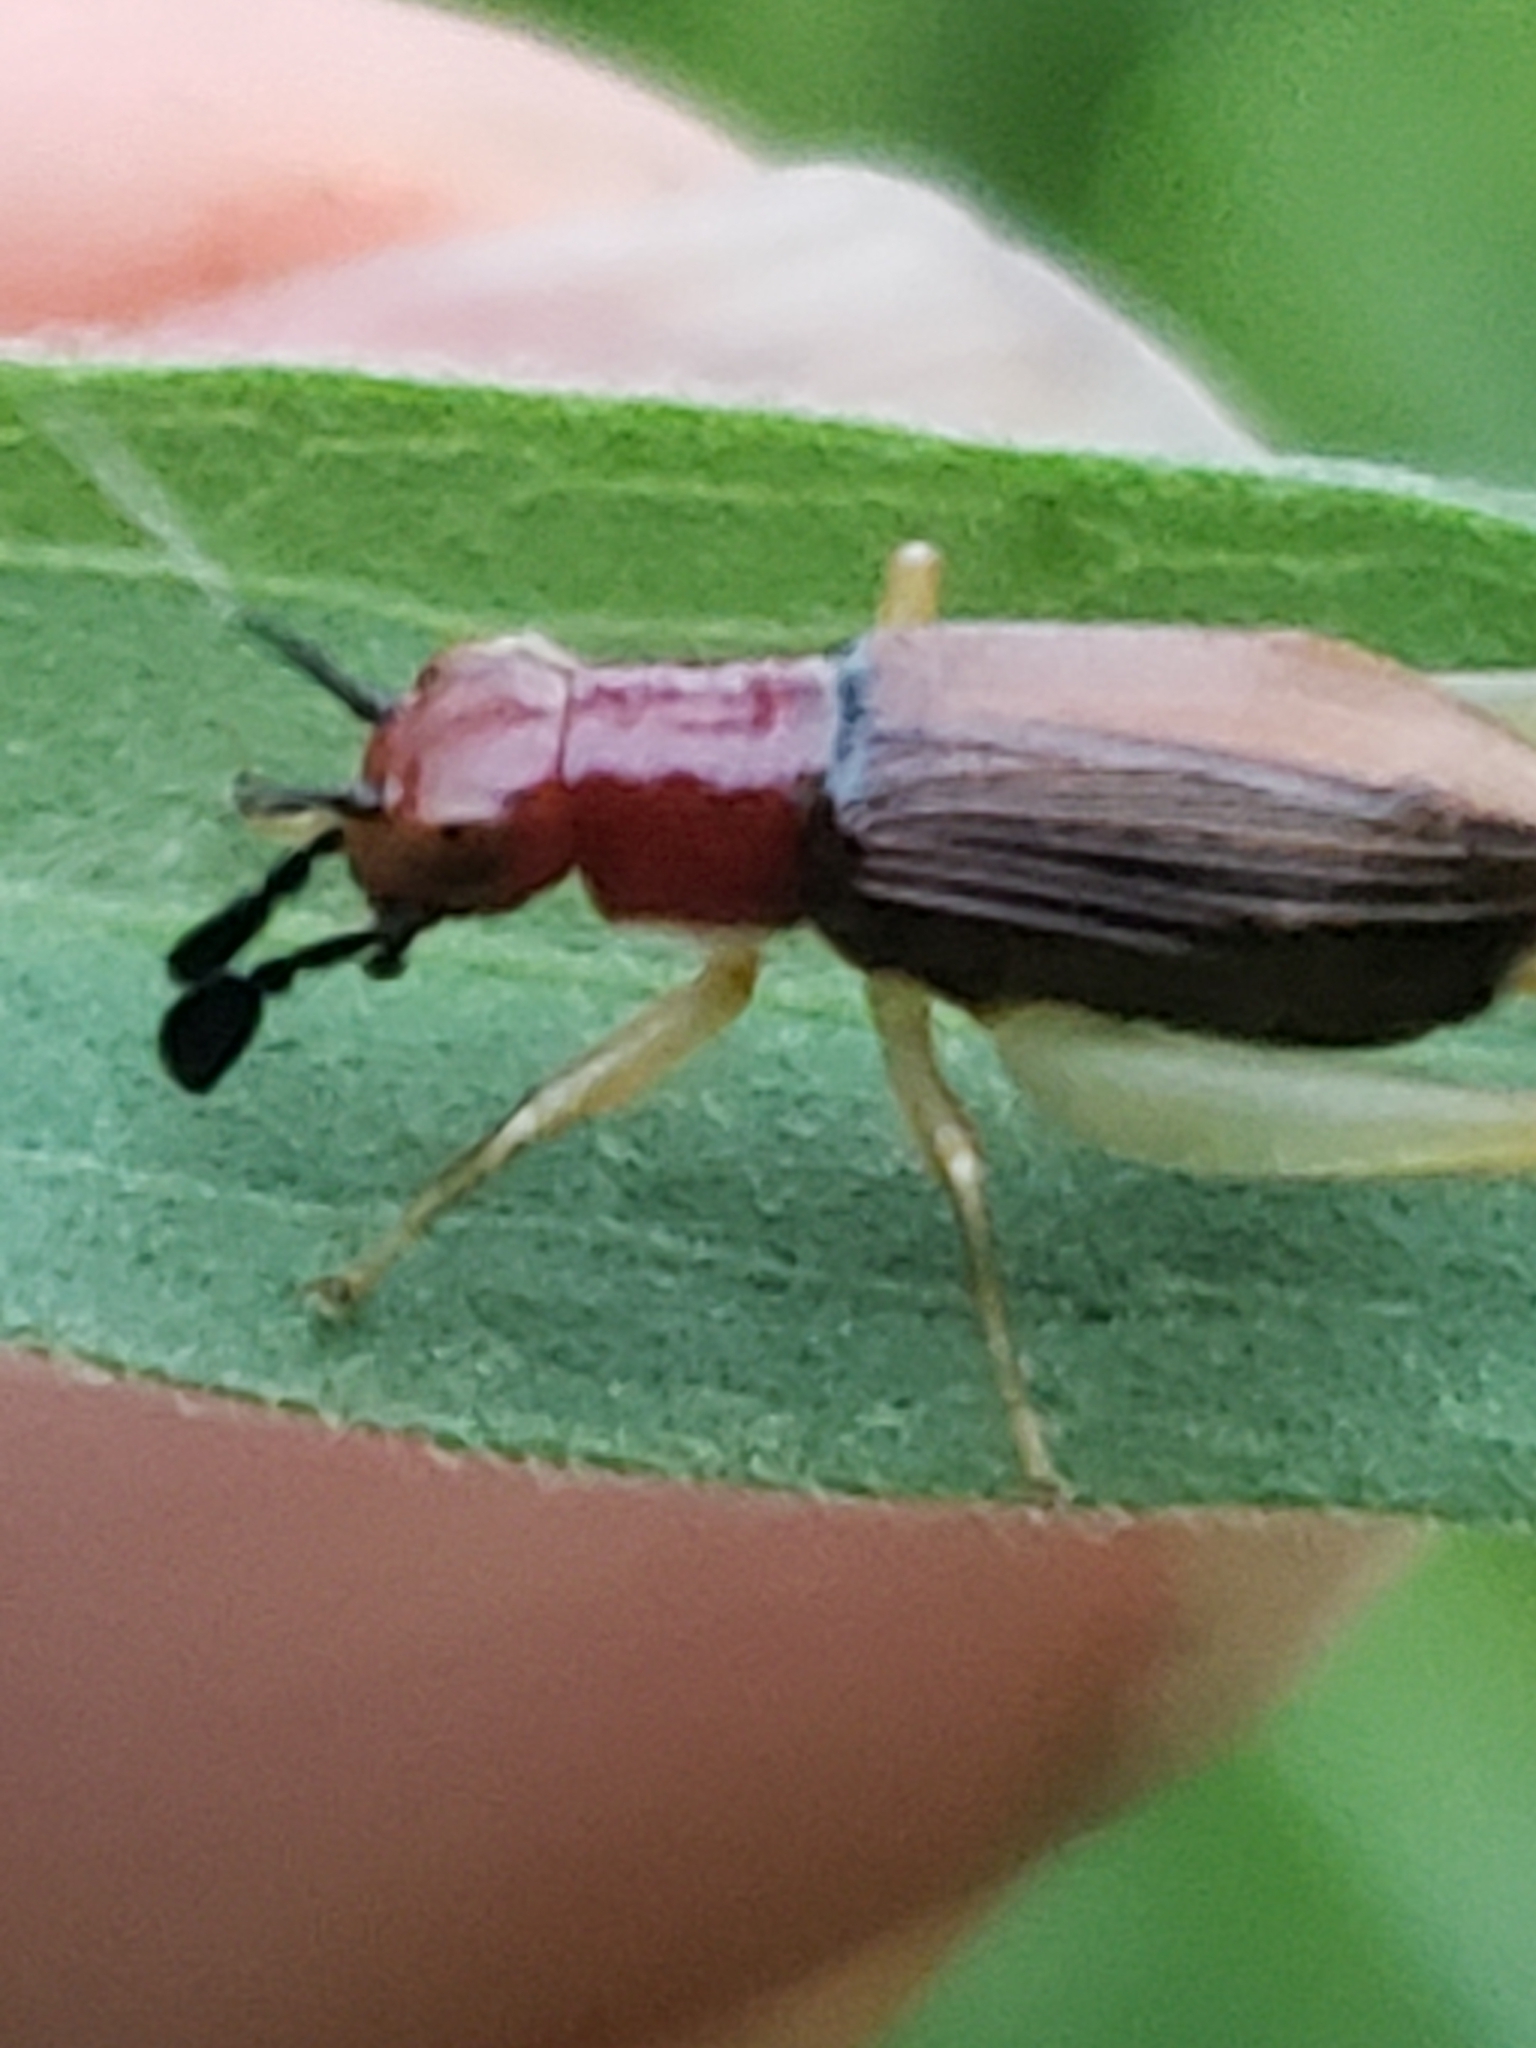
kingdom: Animalia
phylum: Arthropoda
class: Insecta
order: Orthoptera
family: Trigonidiidae
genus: Phyllopalpus
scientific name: Phyllopalpus pulchellus
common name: Handsome trig
